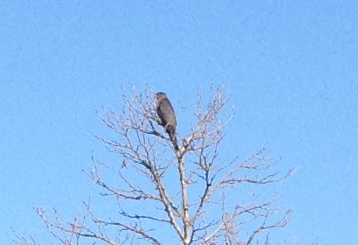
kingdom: Animalia
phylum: Chordata
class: Aves
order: Accipitriformes
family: Accipitridae
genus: Accipiter
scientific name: Accipiter cooperii
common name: Cooper's hawk
